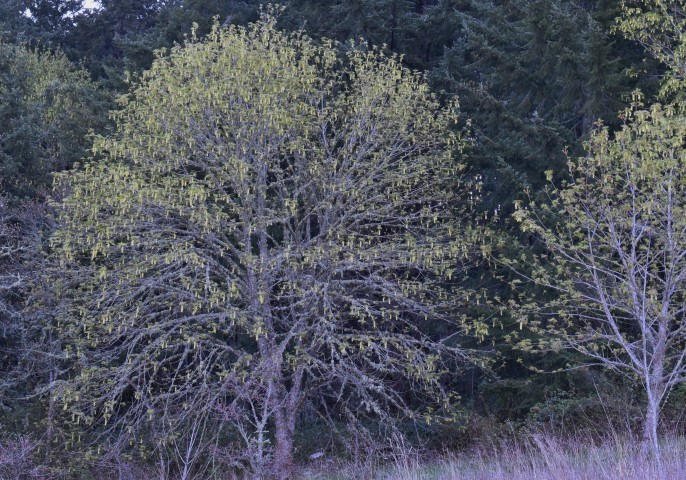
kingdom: Plantae
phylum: Tracheophyta
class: Magnoliopsida
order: Sapindales
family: Sapindaceae
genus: Acer
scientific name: Acer macrophyllum
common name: Oregon maple
